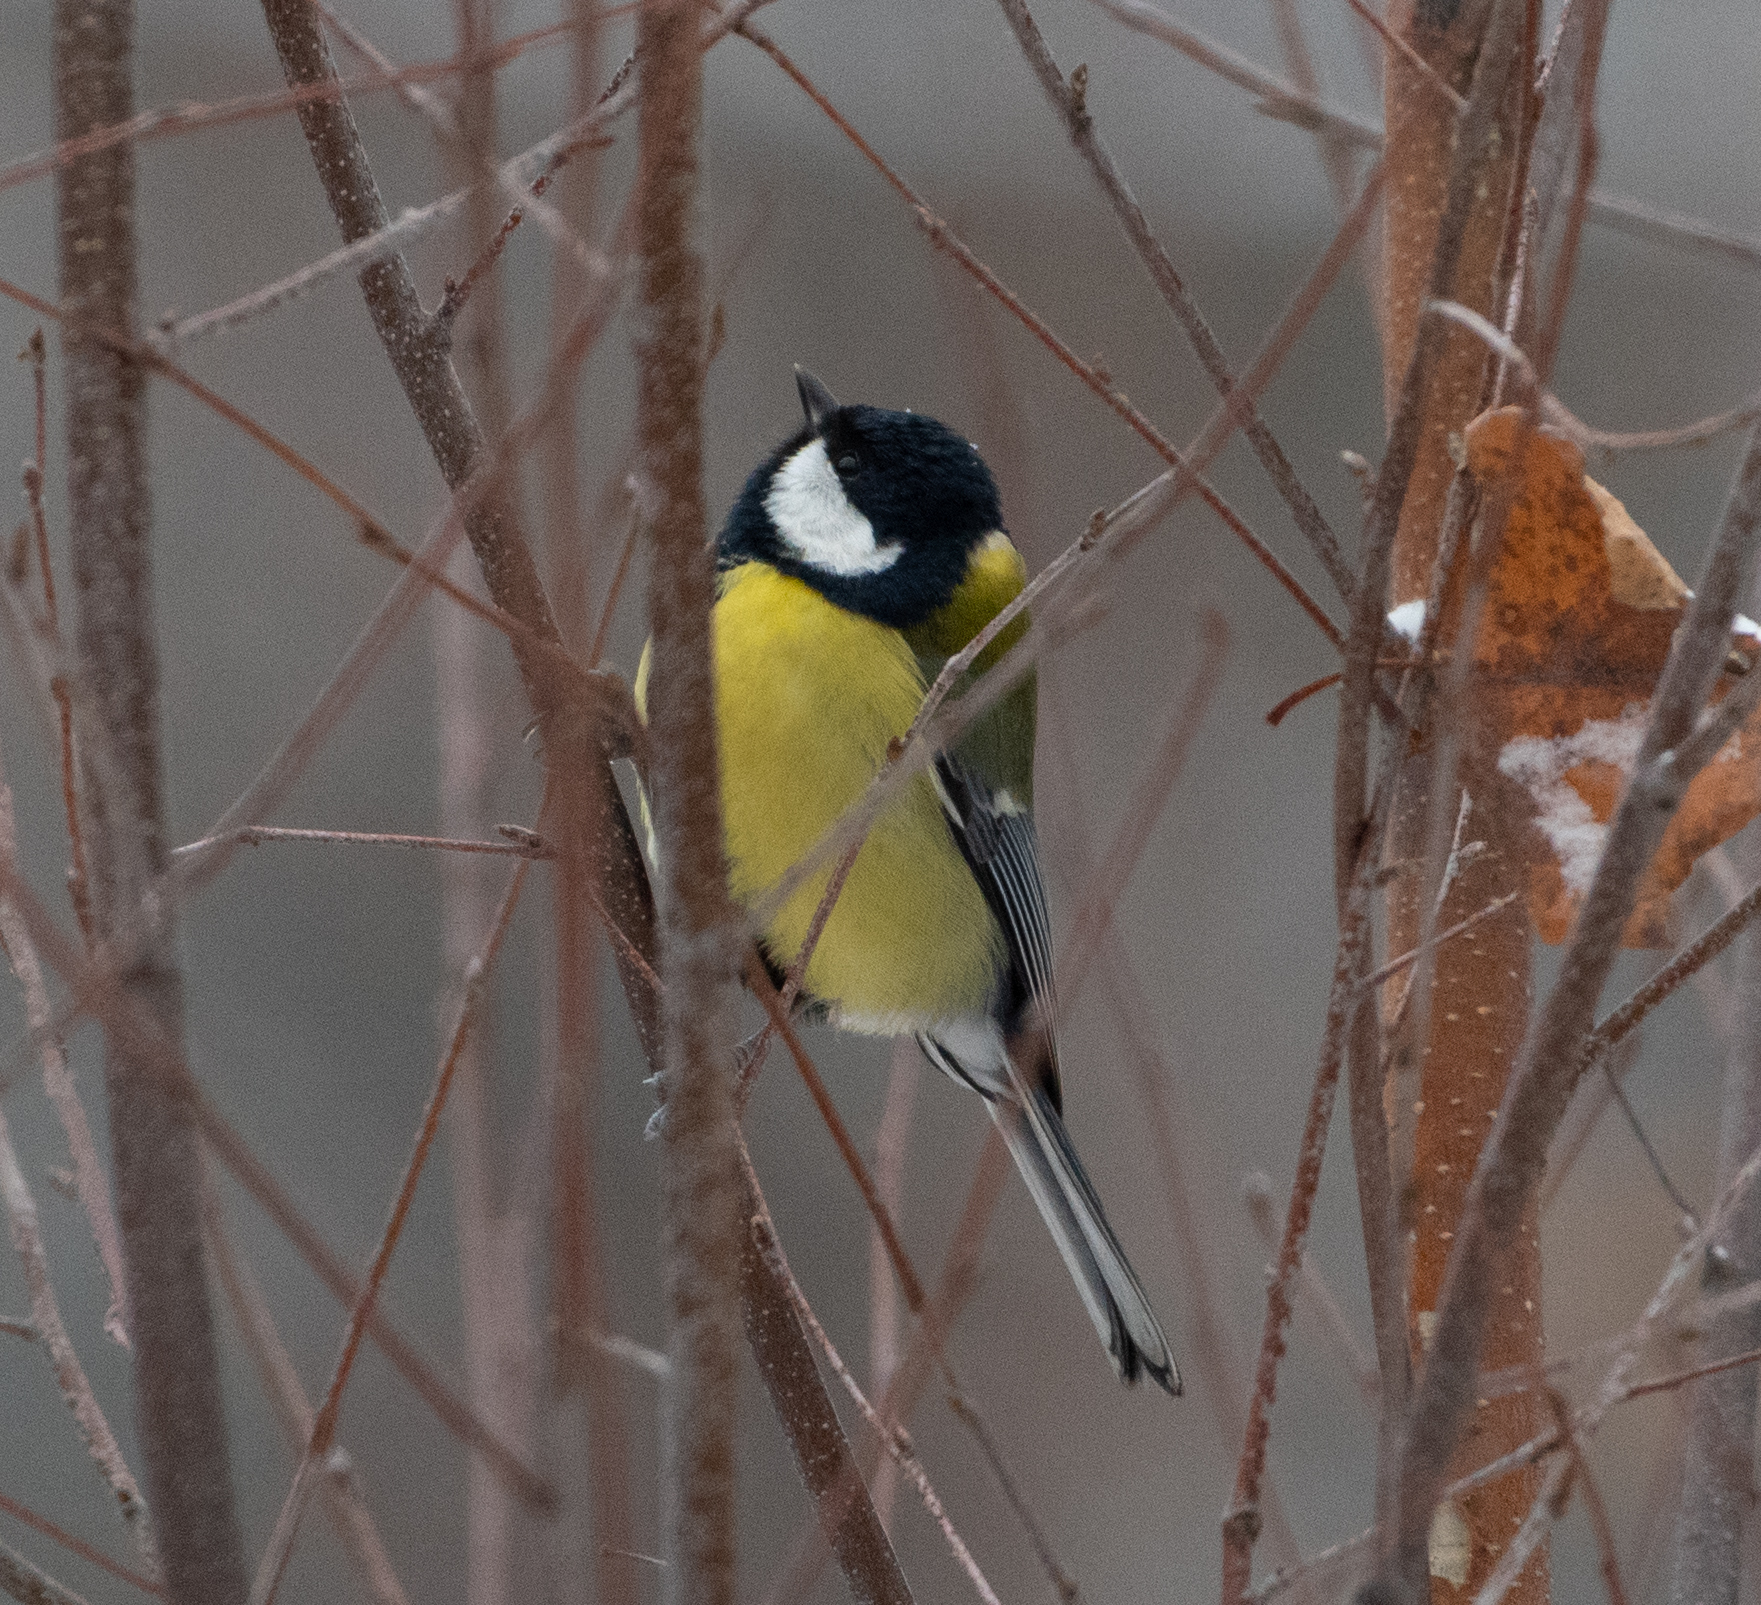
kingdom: Animalia
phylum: Chordata
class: Aves
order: Passeriformes
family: Paridae
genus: Parus
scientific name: Parus major
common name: Great tit
